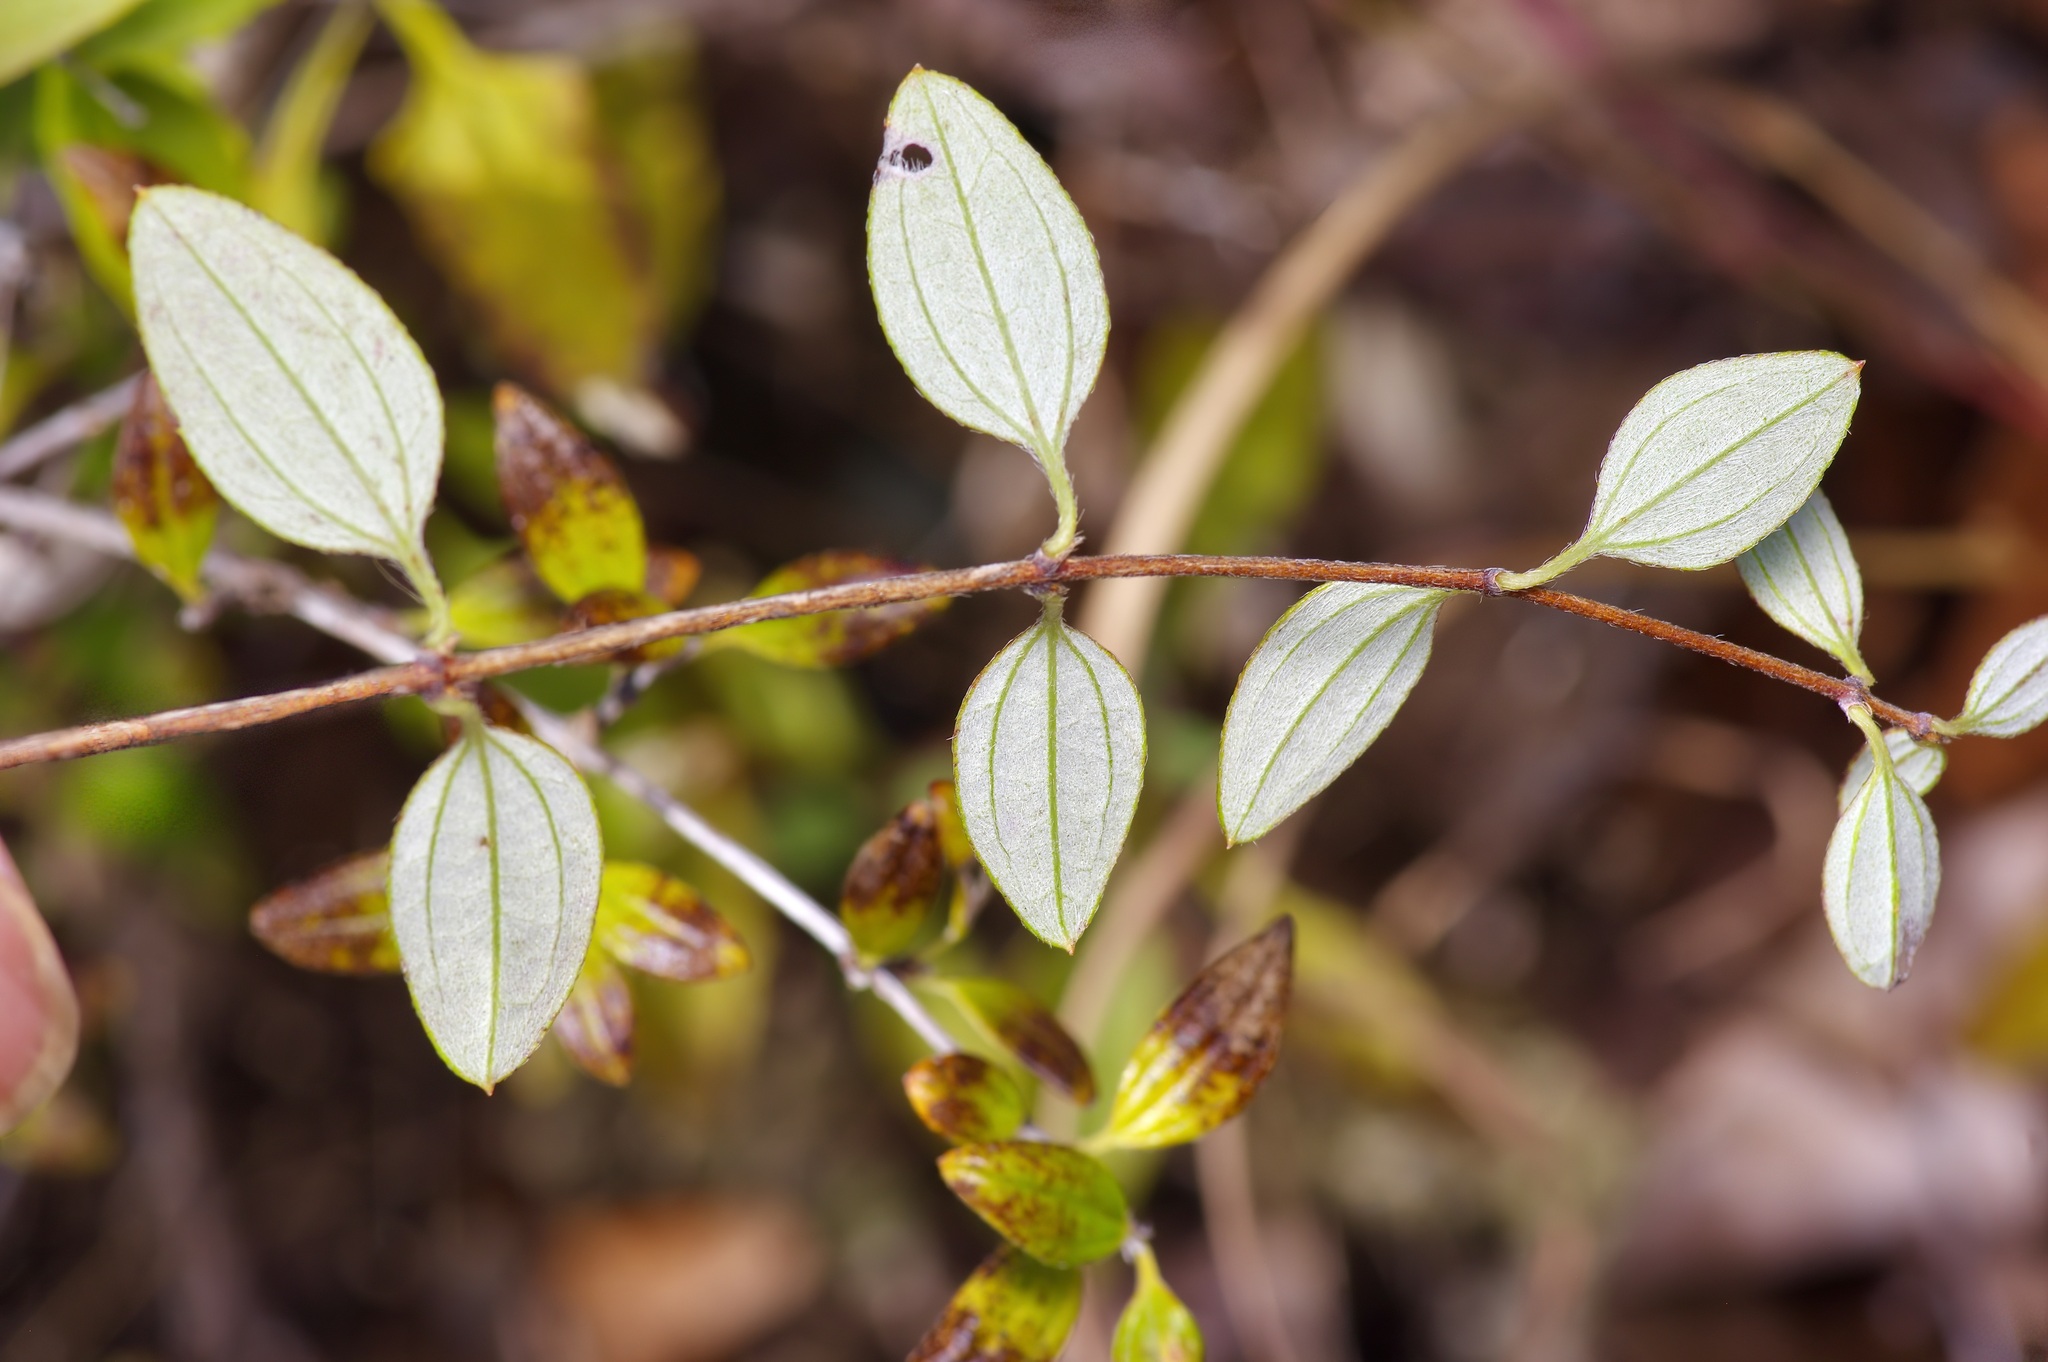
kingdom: Plantae
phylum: Tracheophyta
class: Magnoliopsida
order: Cornales
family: Hydrangeaceae
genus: Philadelphus
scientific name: Philadelphus texensis
